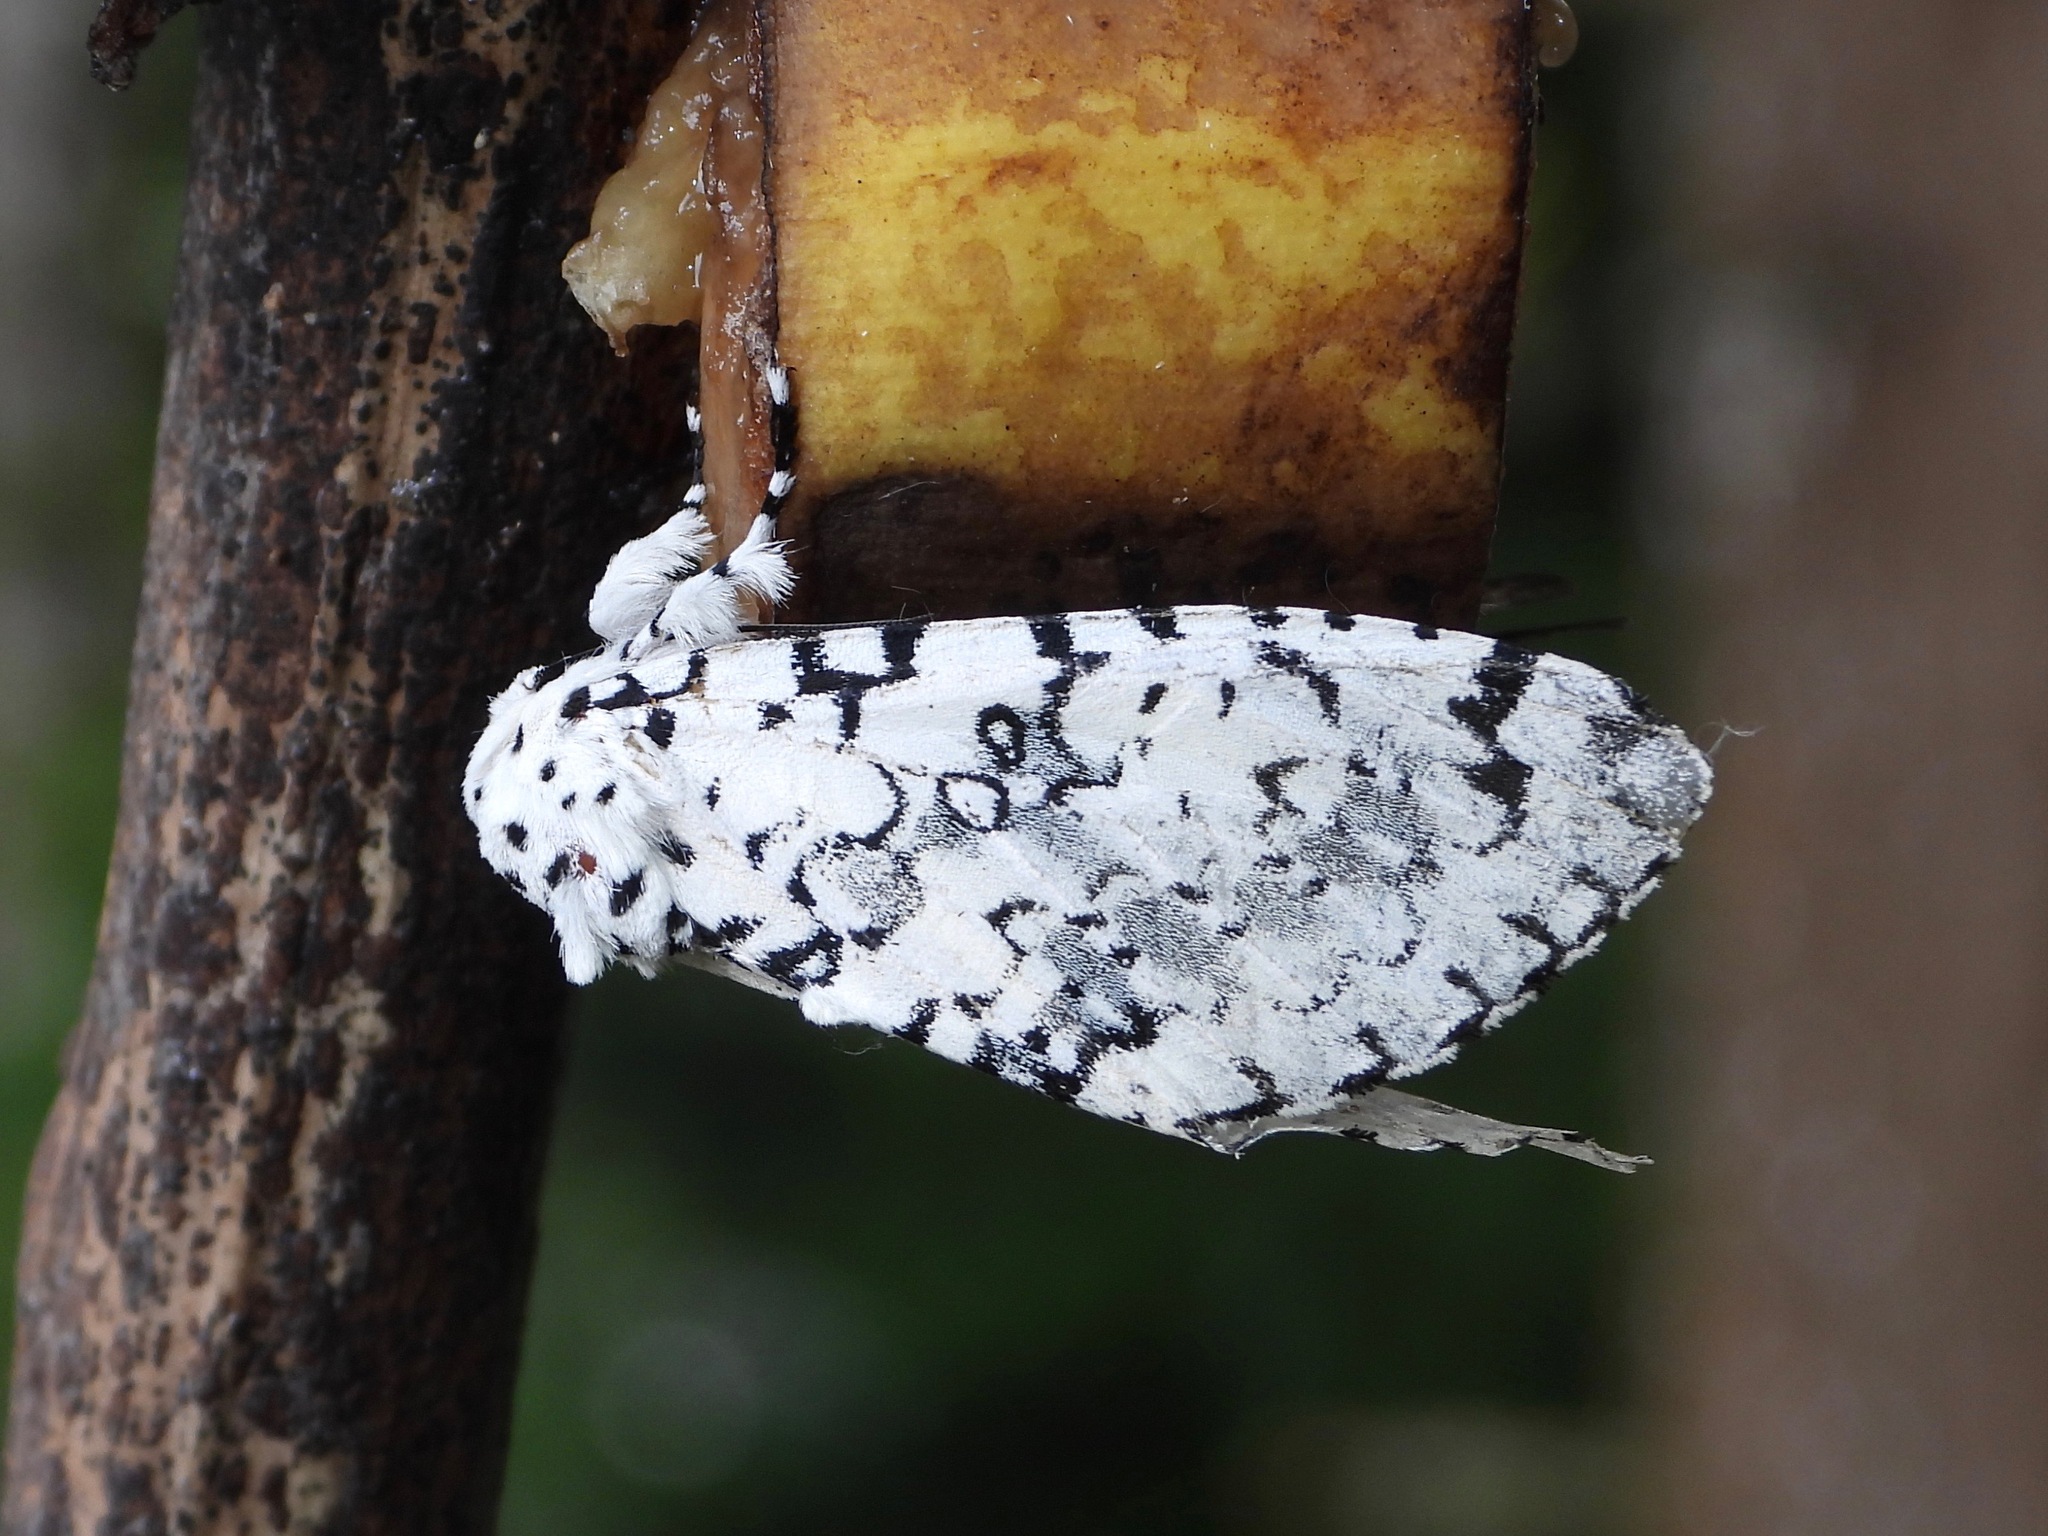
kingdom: Animalia
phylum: Arthropoda
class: Insecta
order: Lepidoptera
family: Noctuidae
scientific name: Noctuidae
